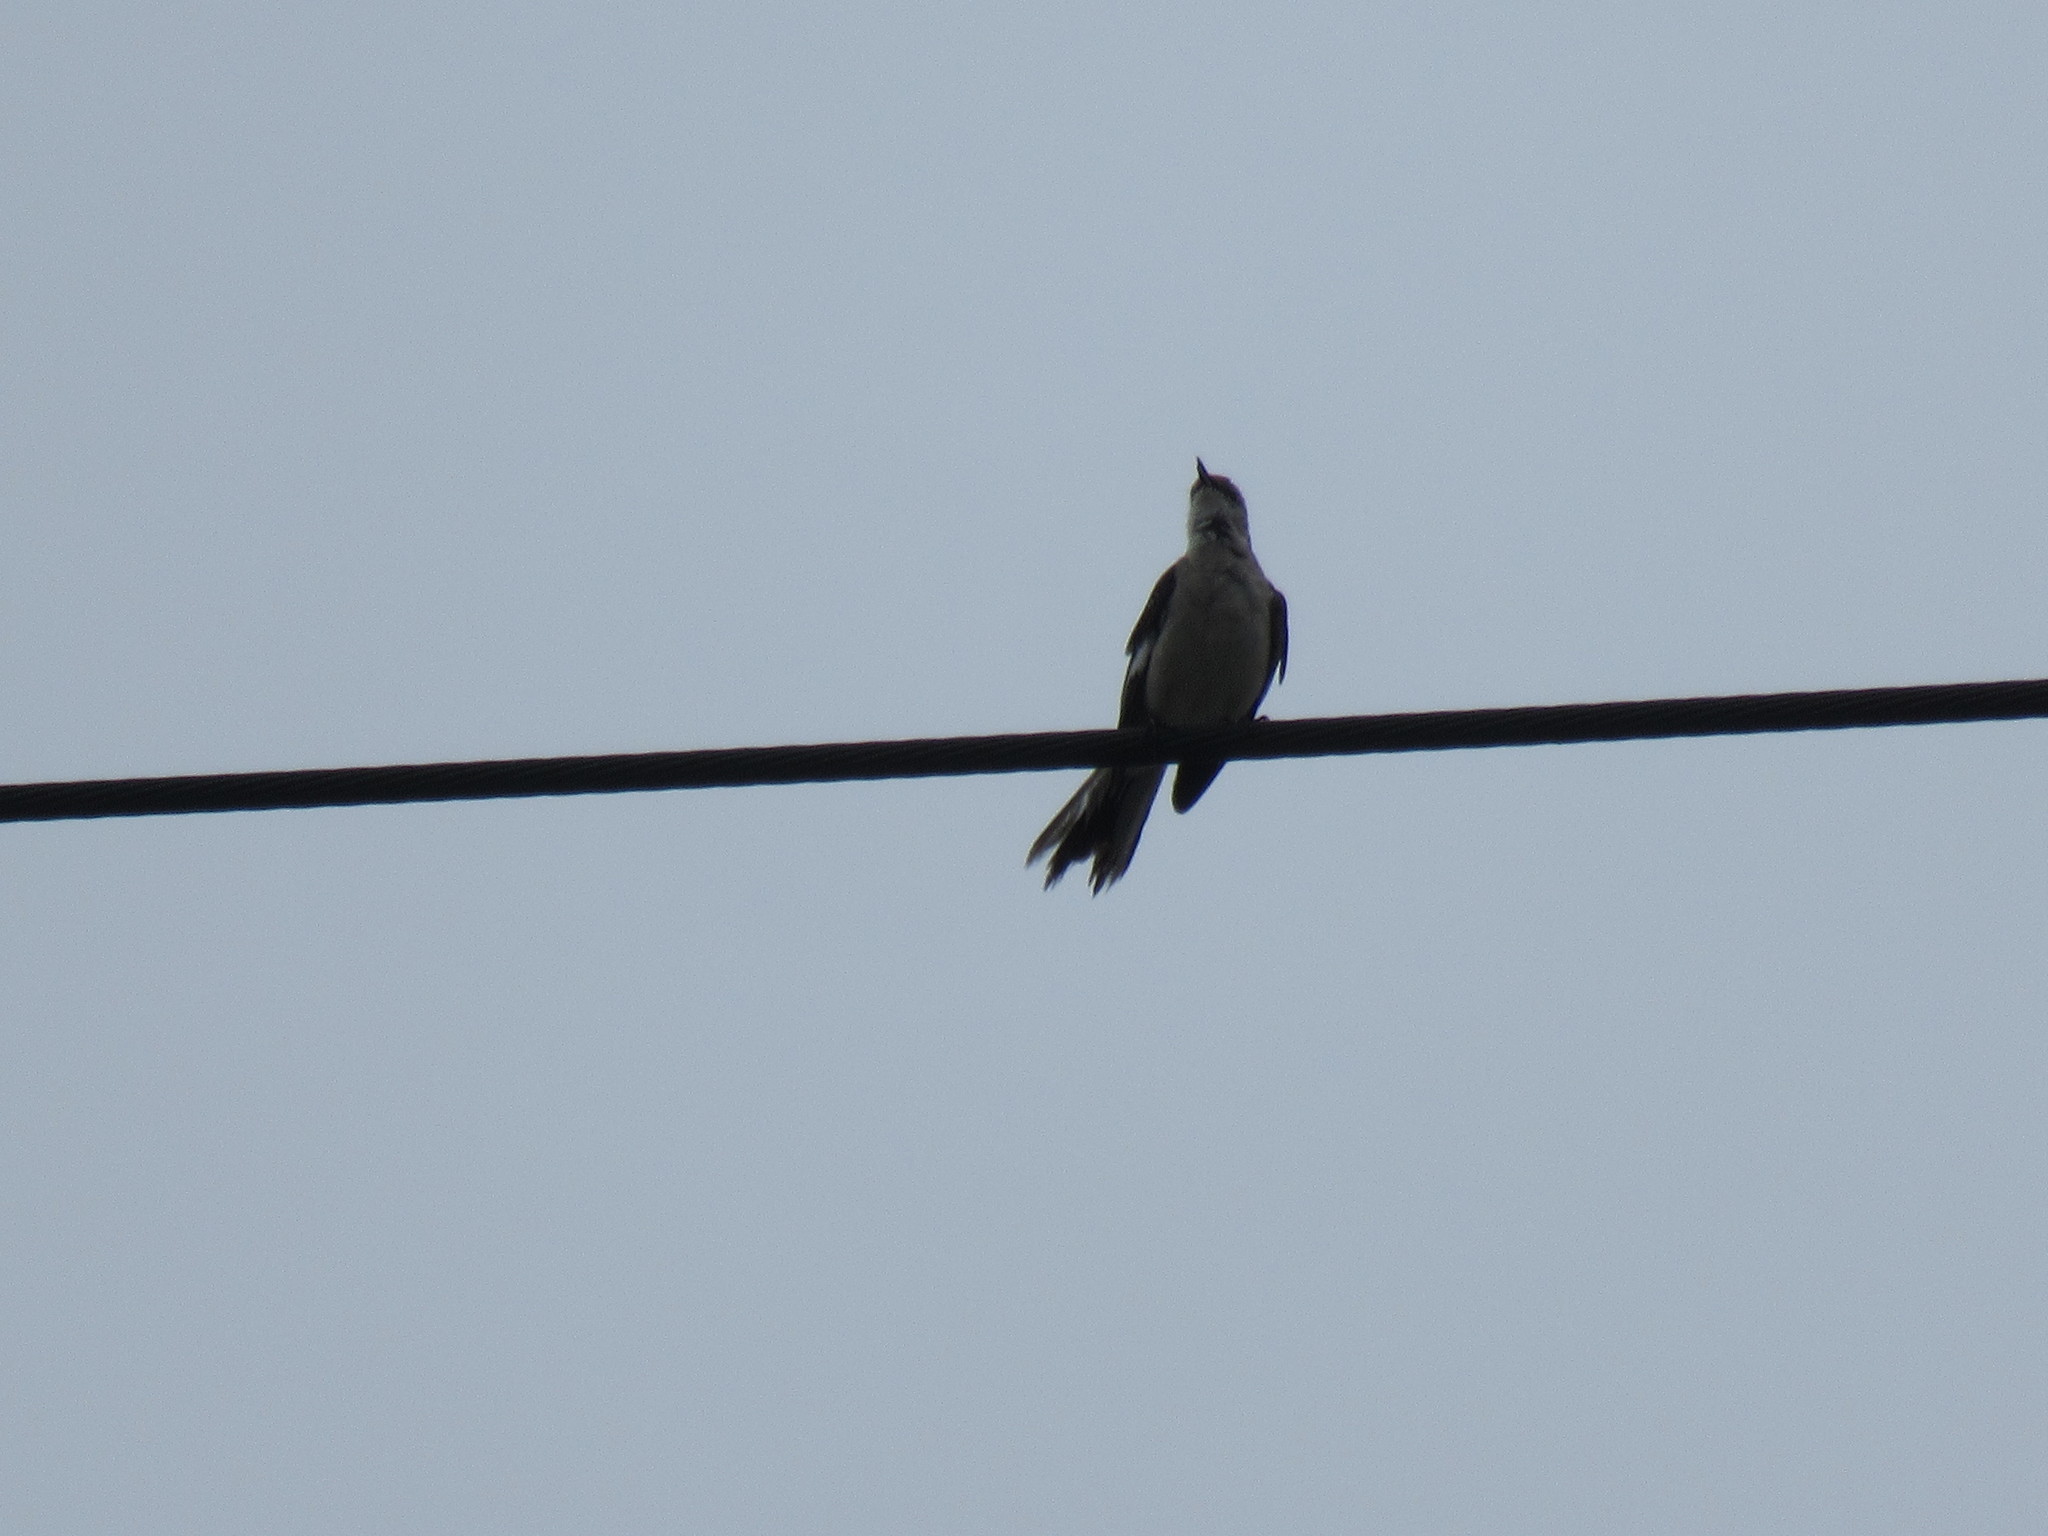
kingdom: Animalia
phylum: Chordata
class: Aves
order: Passeriformes
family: Mimidae
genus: Mimus
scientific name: Mimus polyglottos
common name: Northern mockingbird
